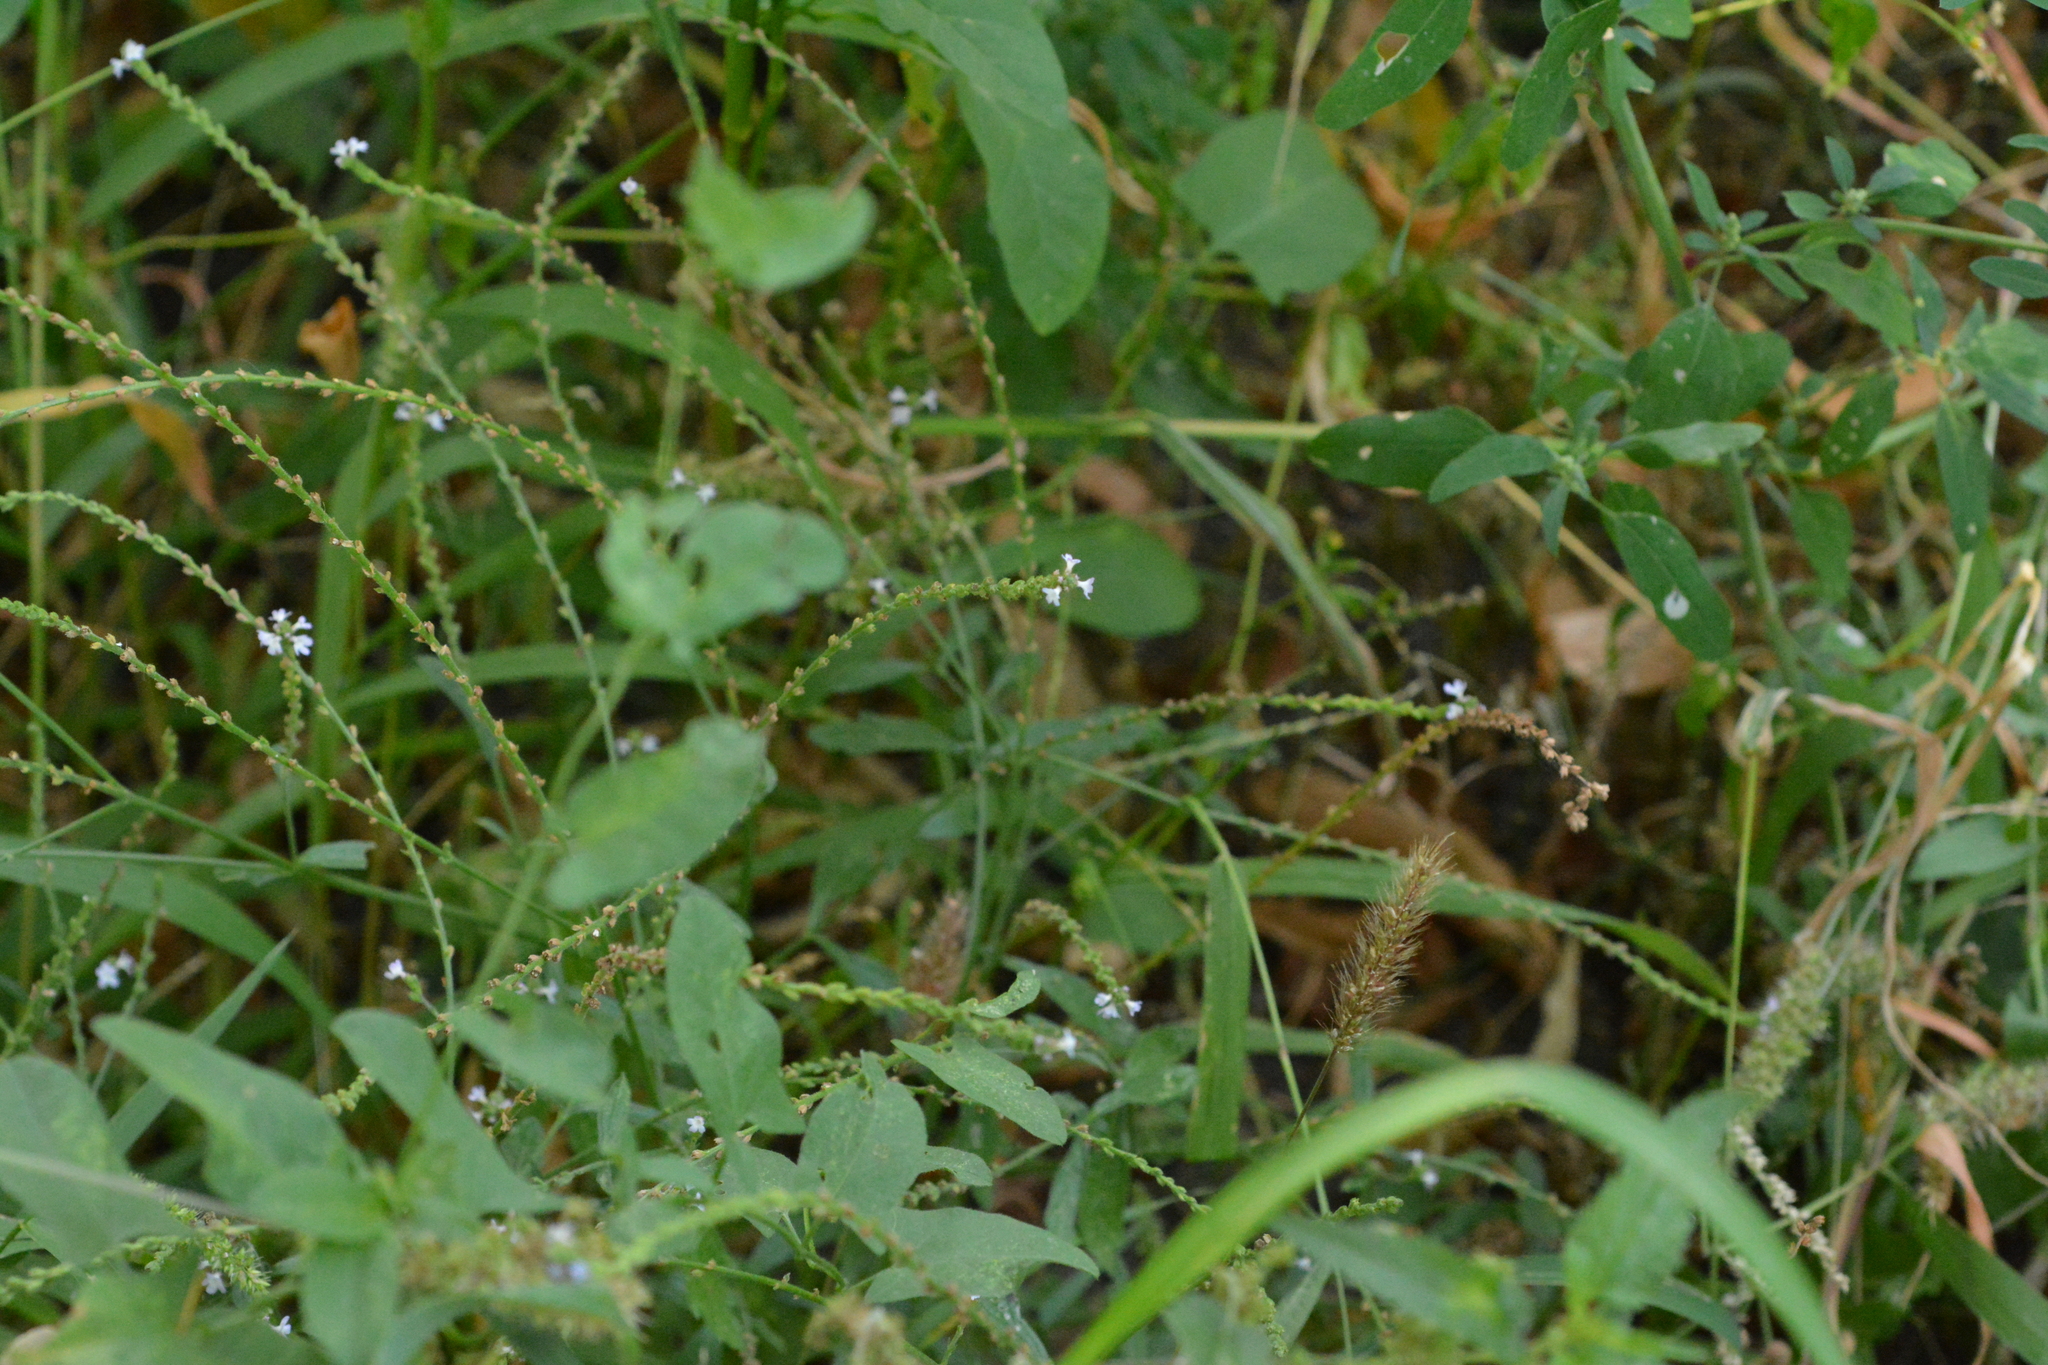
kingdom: Plantae
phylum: Tracheophyta
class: Magnoliopsida
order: Lamiales
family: Verbenaceae
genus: Verbena
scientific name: Verbena officinalis
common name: Vervain
